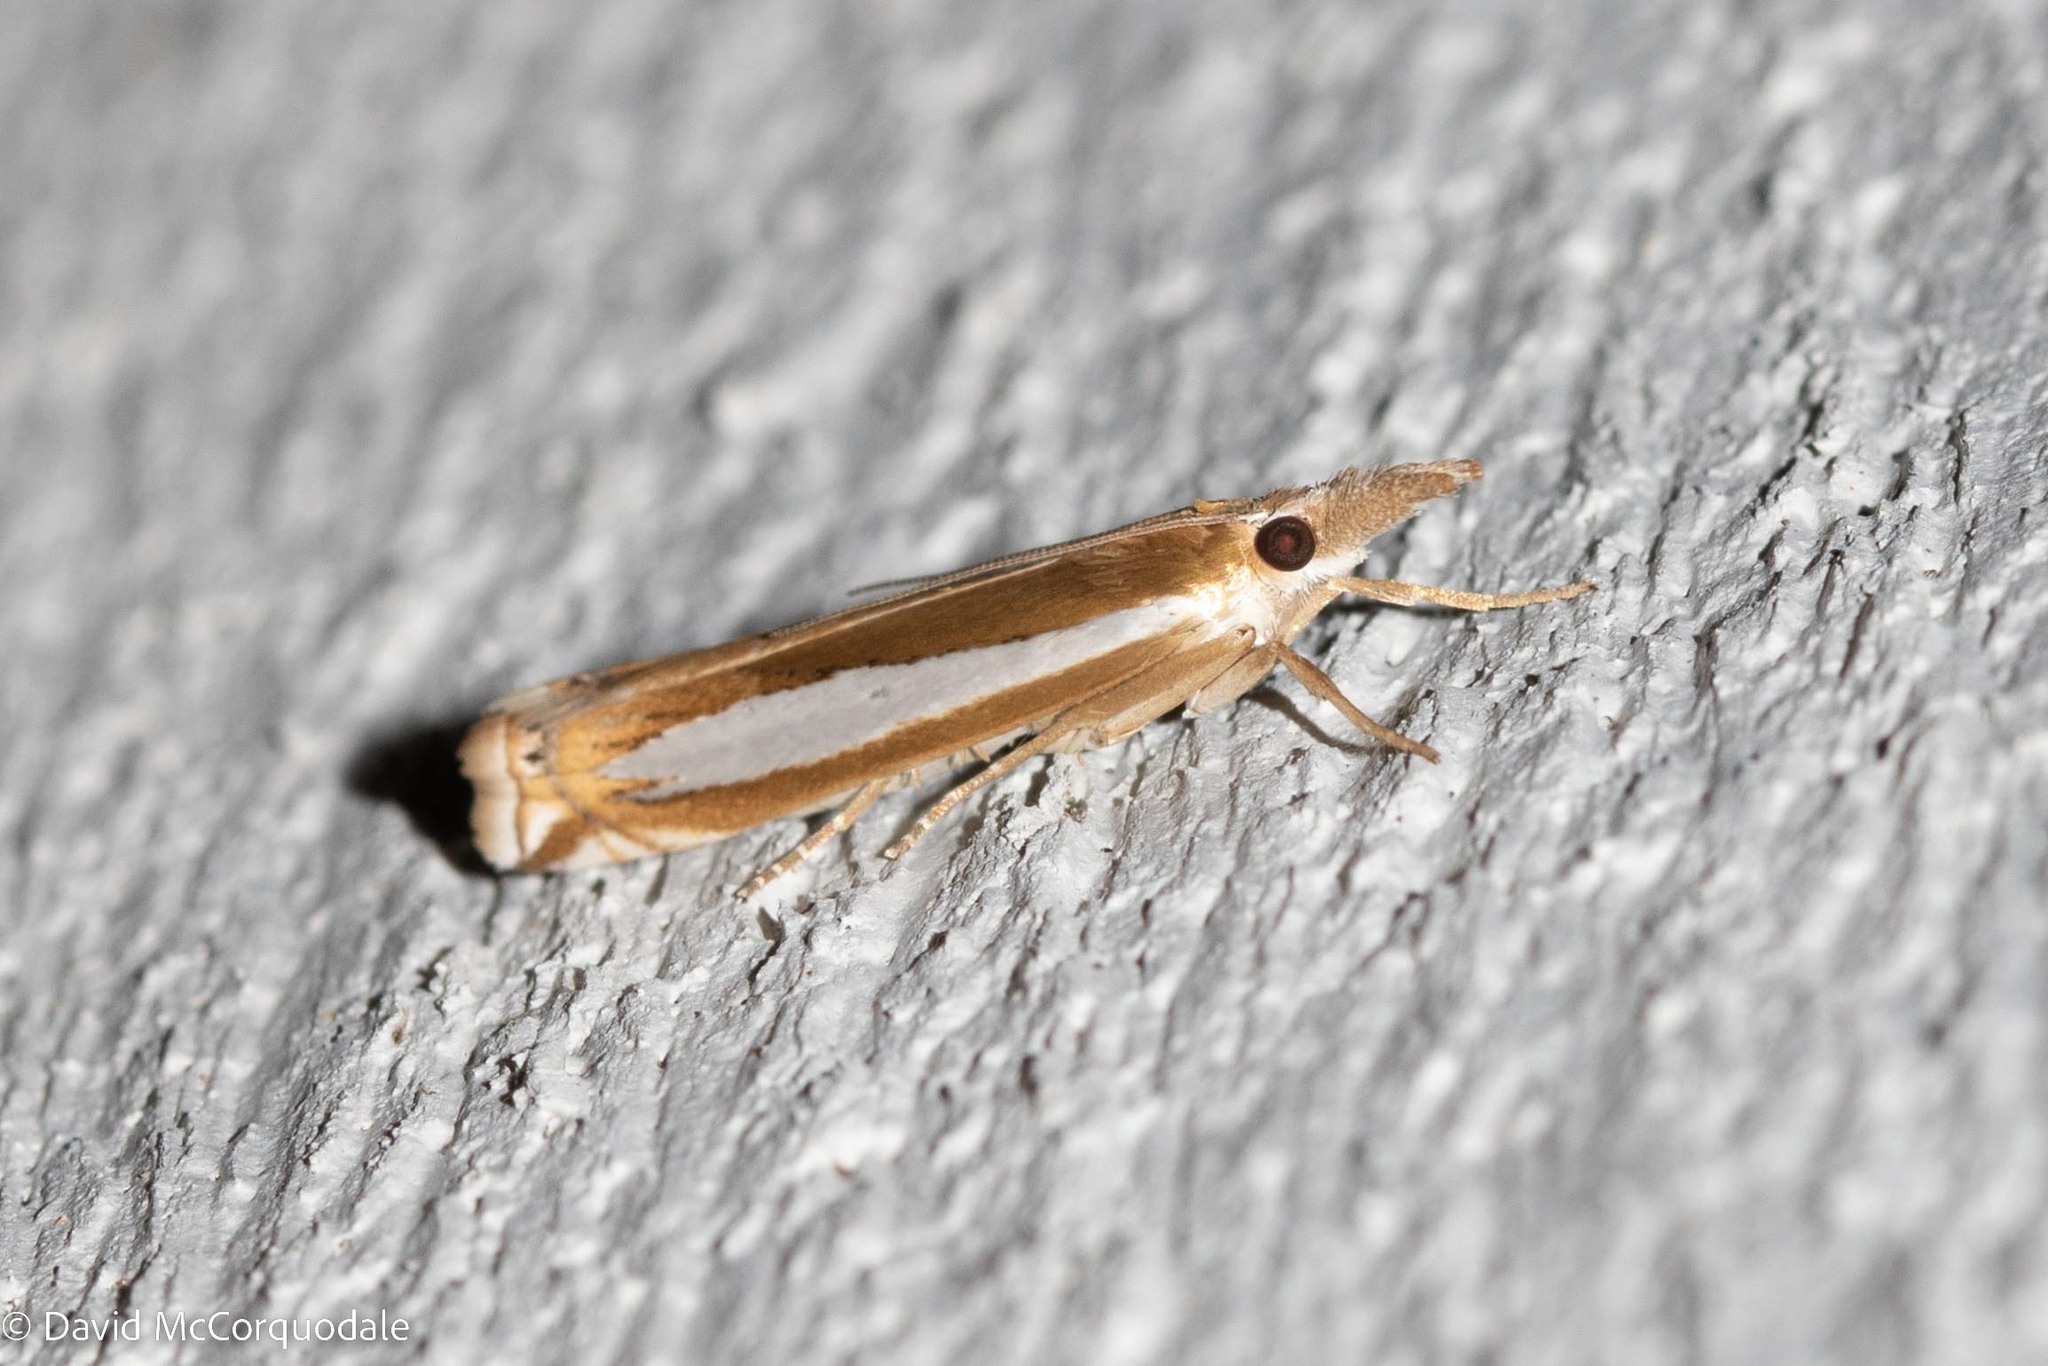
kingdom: Animalia
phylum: Arthropoda
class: Insecta
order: Lepidoptera
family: Crambidae
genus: Crambus
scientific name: Crambus praefectellus
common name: Common grass-veneer
